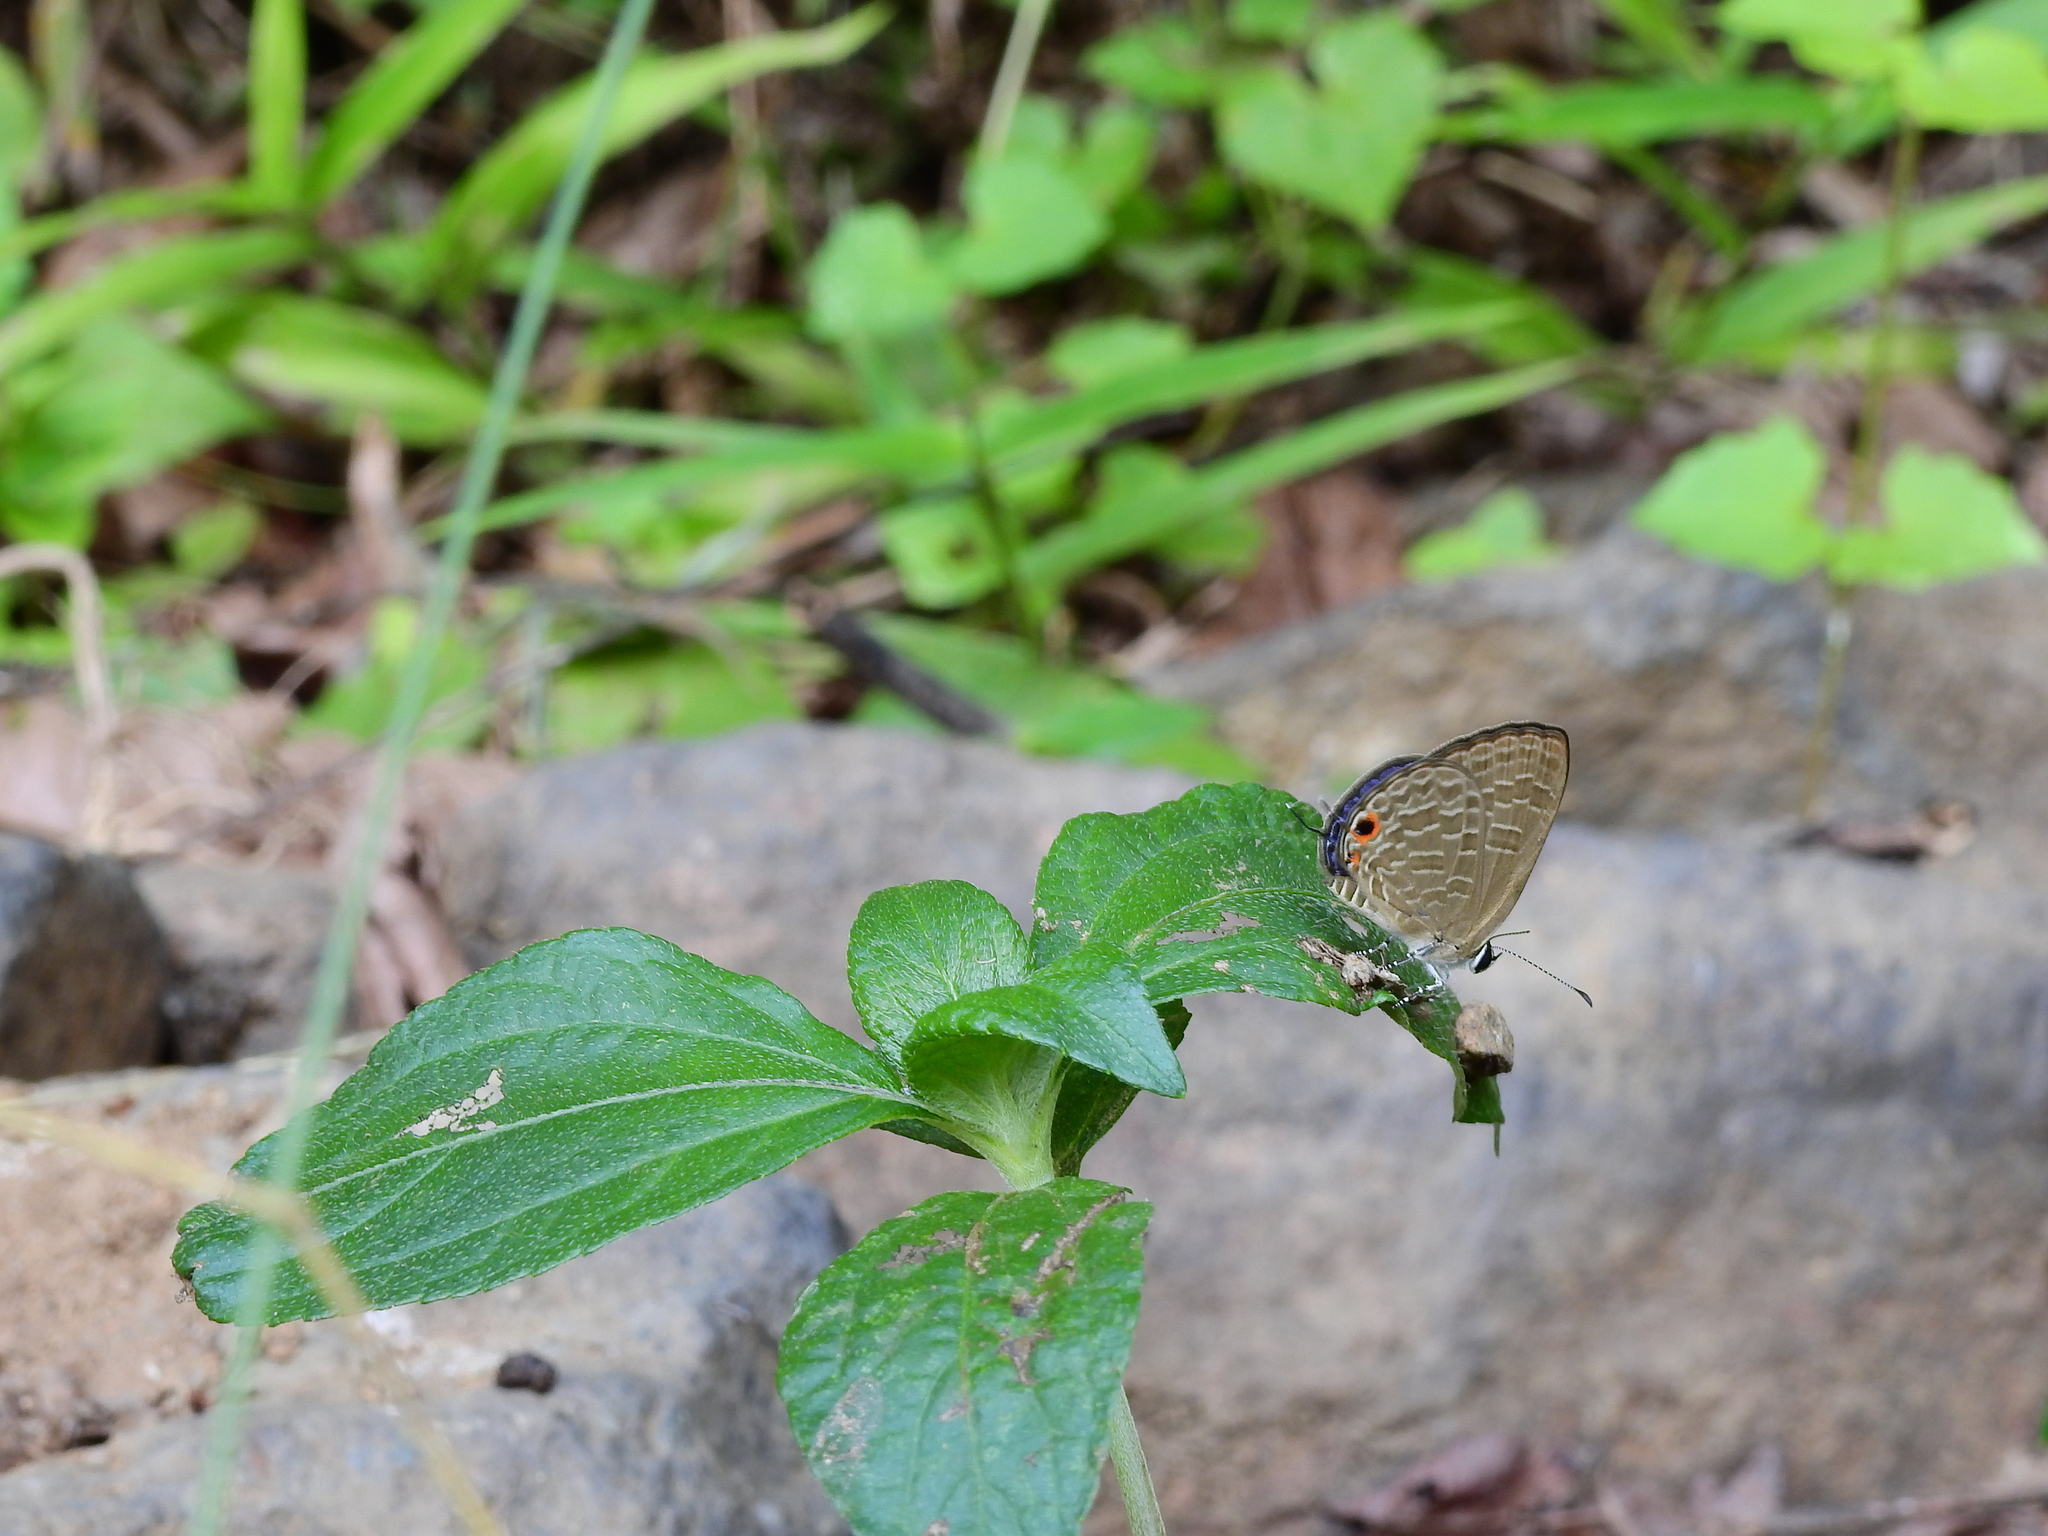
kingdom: Animalia
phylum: Arthropoda
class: Insecta
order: Lepidoptera
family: Lycaenidae
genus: Jamides
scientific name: Jamides bochus
